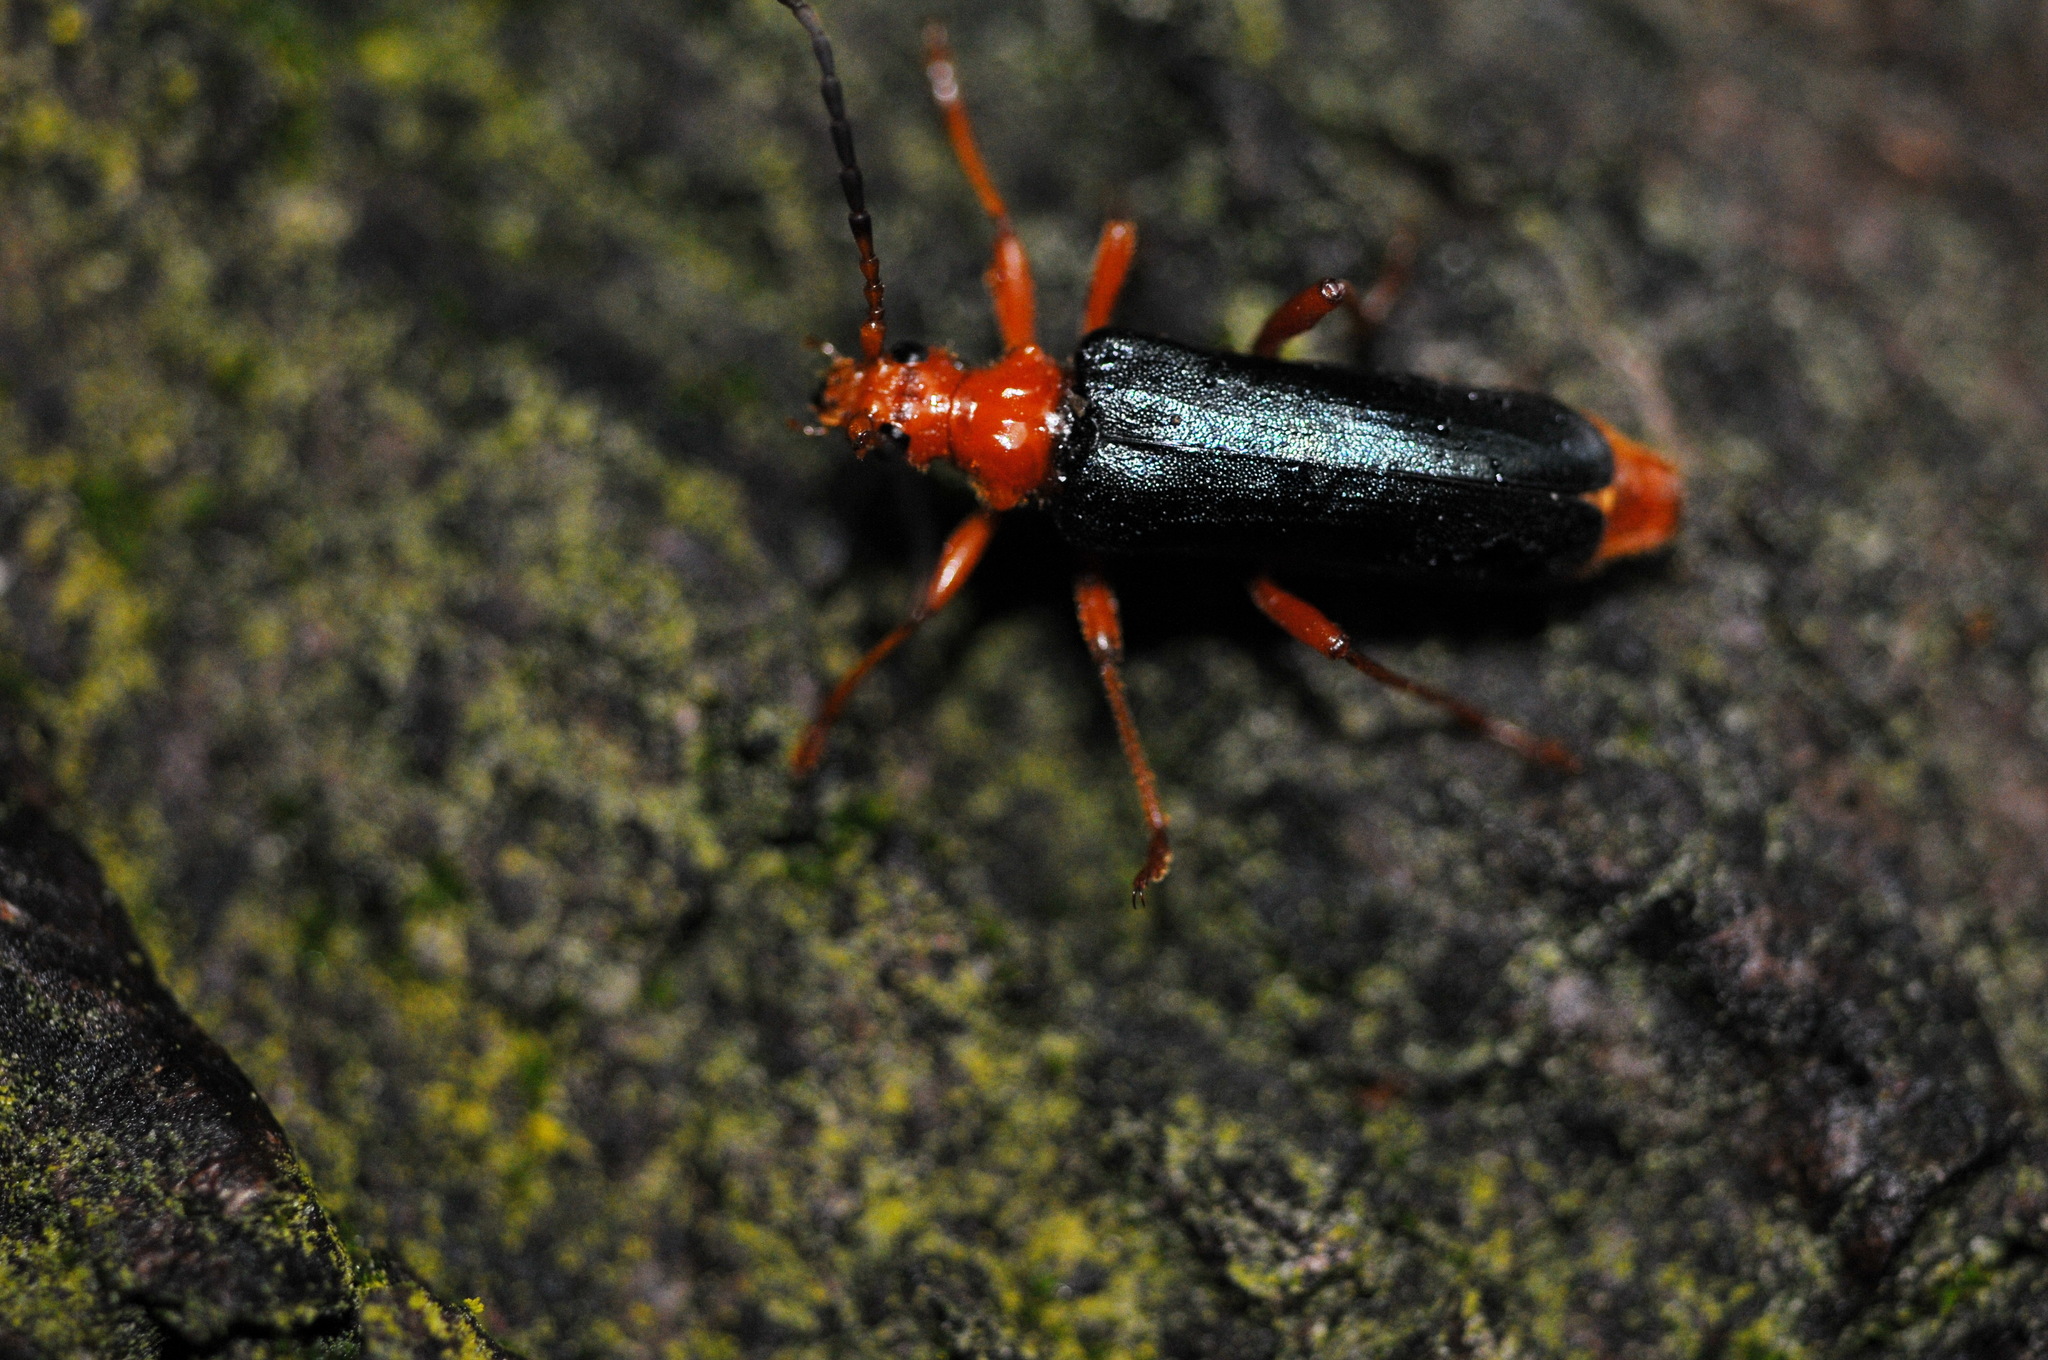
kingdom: Animalia
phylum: Arthropoda
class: Insecta
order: Coleoptera
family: Cerambycidae
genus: Rhamnusium
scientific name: Rhamnusium bicolor
